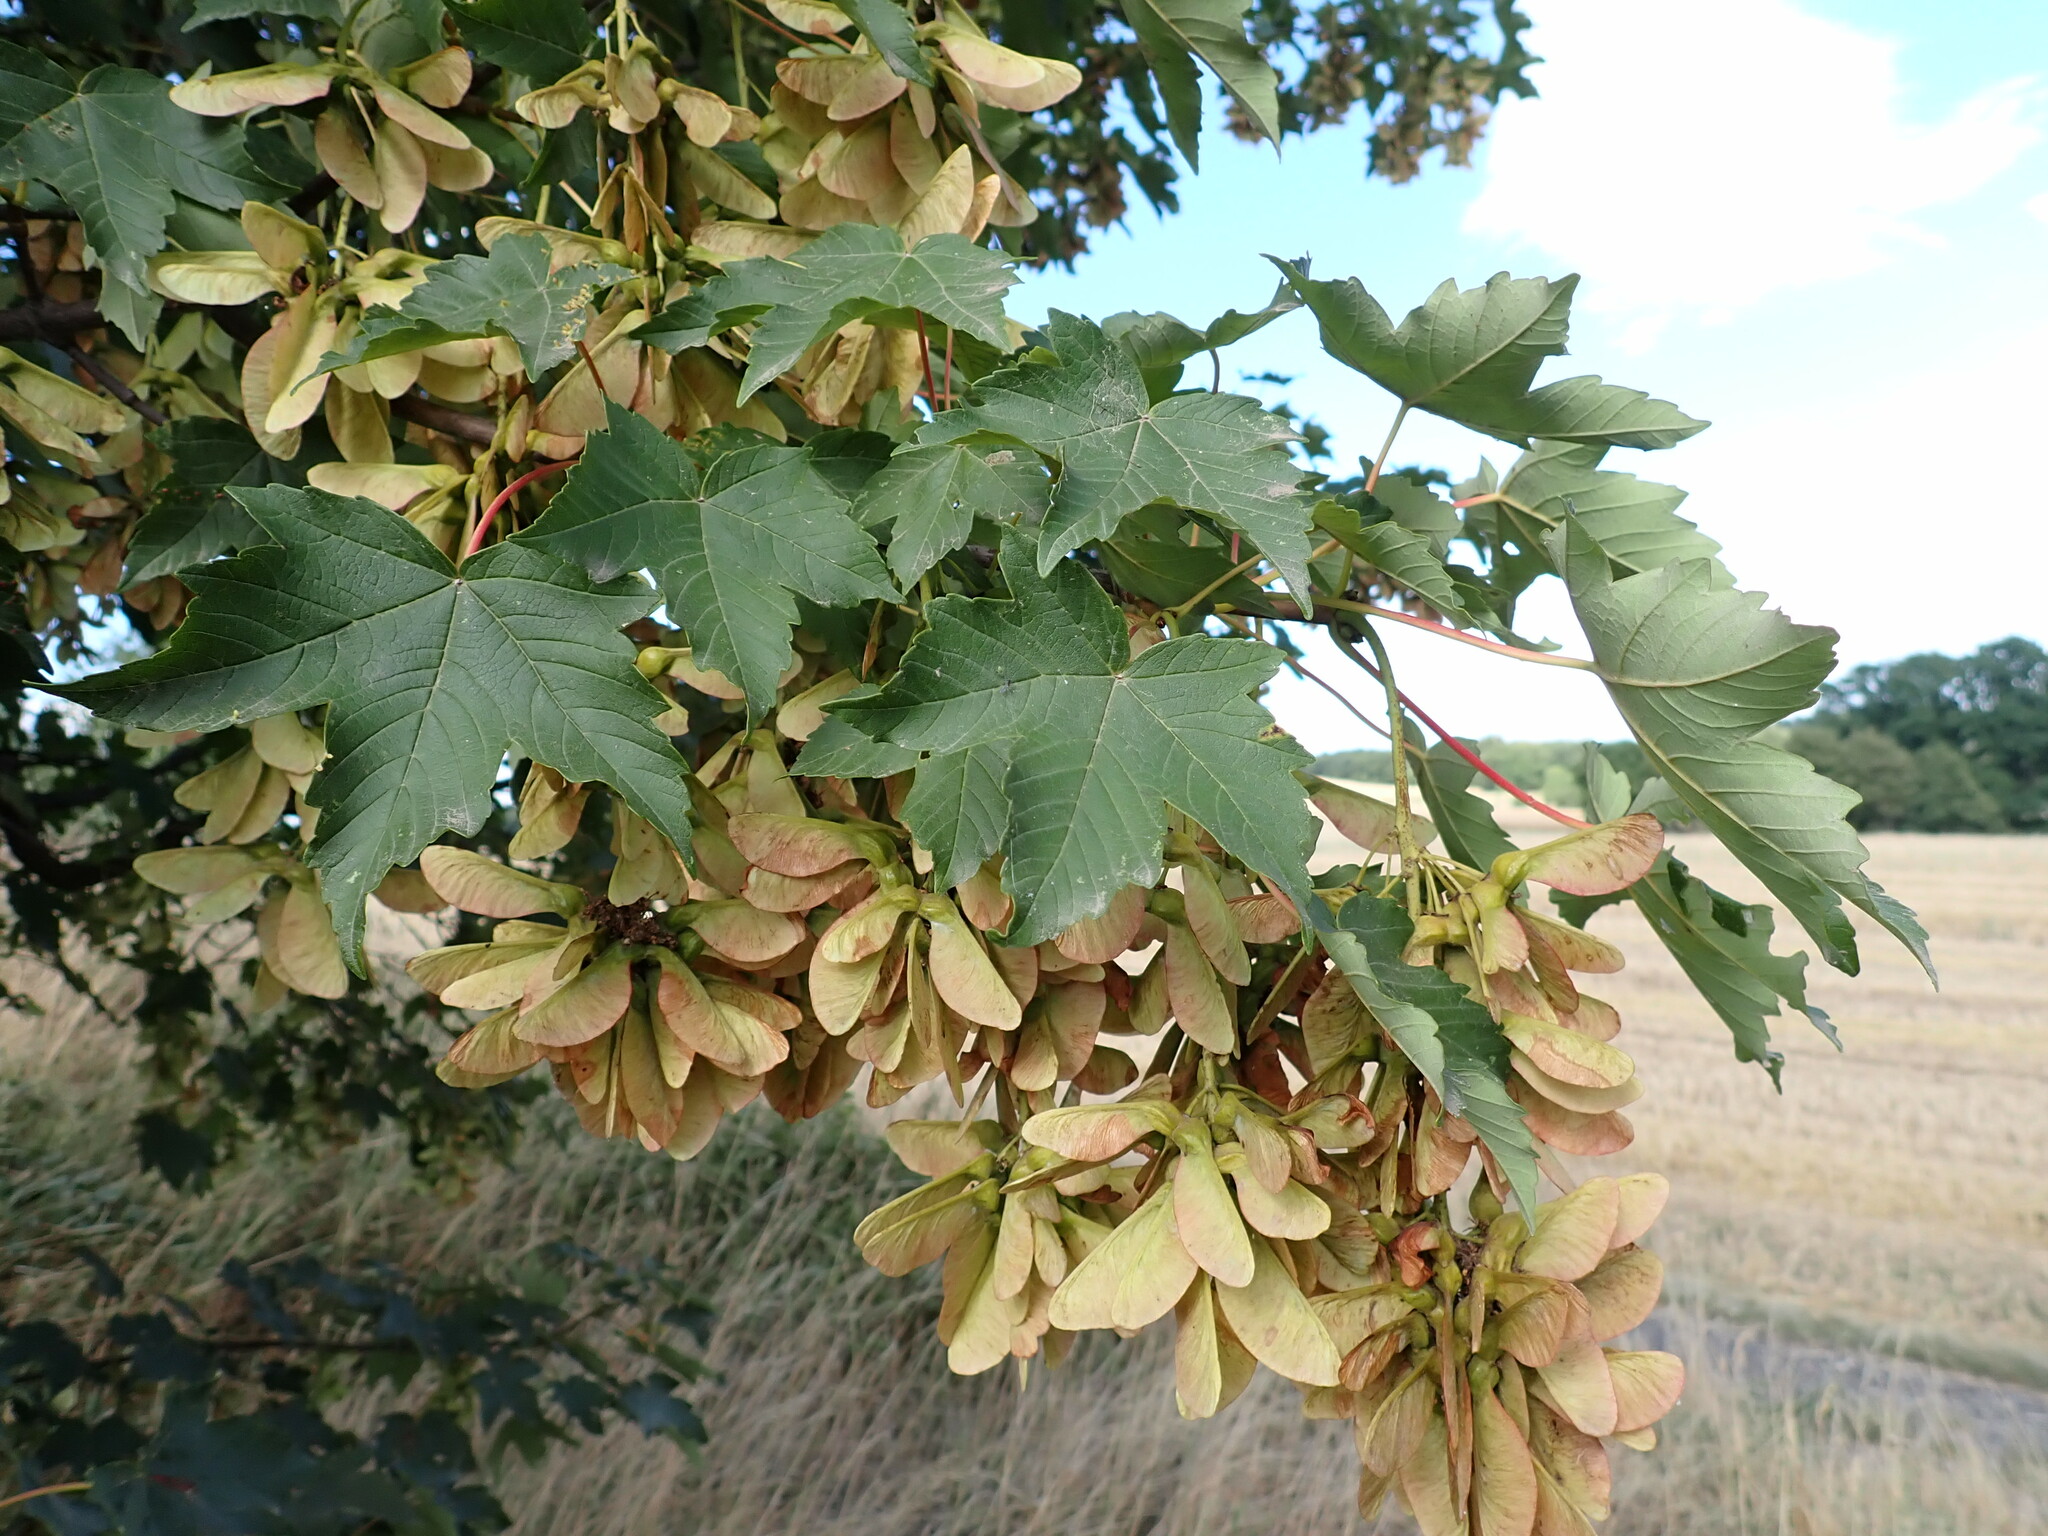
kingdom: Plantae
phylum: Tracheophyta
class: Magnoliopsida
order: Sapindales
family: Sapindaceae
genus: Acer
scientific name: Acer pseudoplatanus
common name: Sycamore
